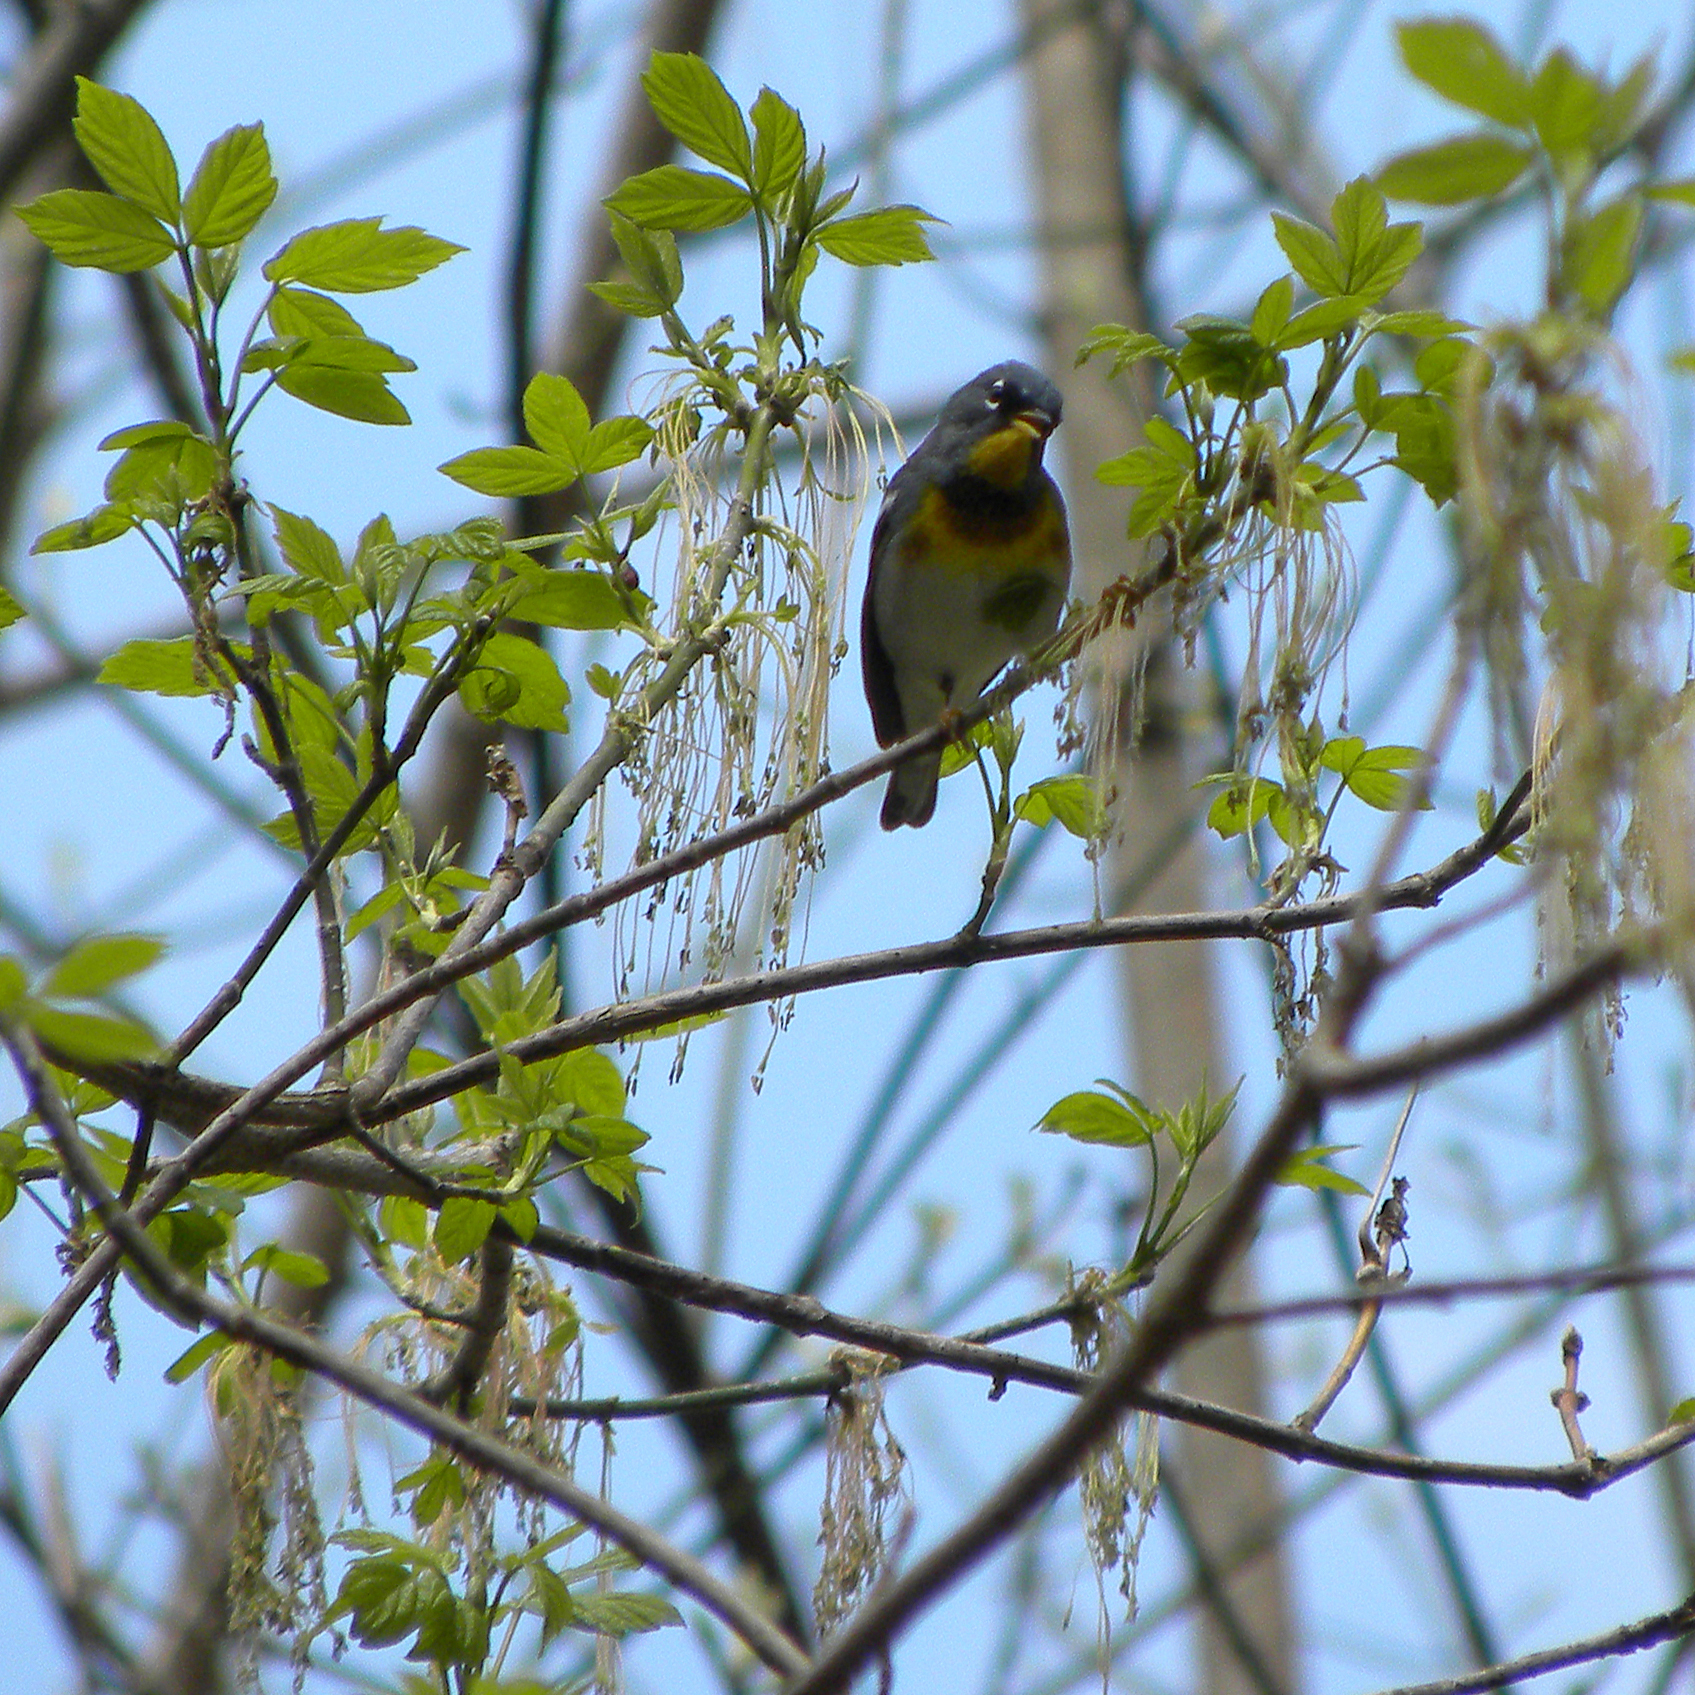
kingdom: Animalia
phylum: Chordata
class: Aves
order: Passeriformes
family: Parulidae
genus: Setophaga
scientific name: Setophaga americana
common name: Northern parula
